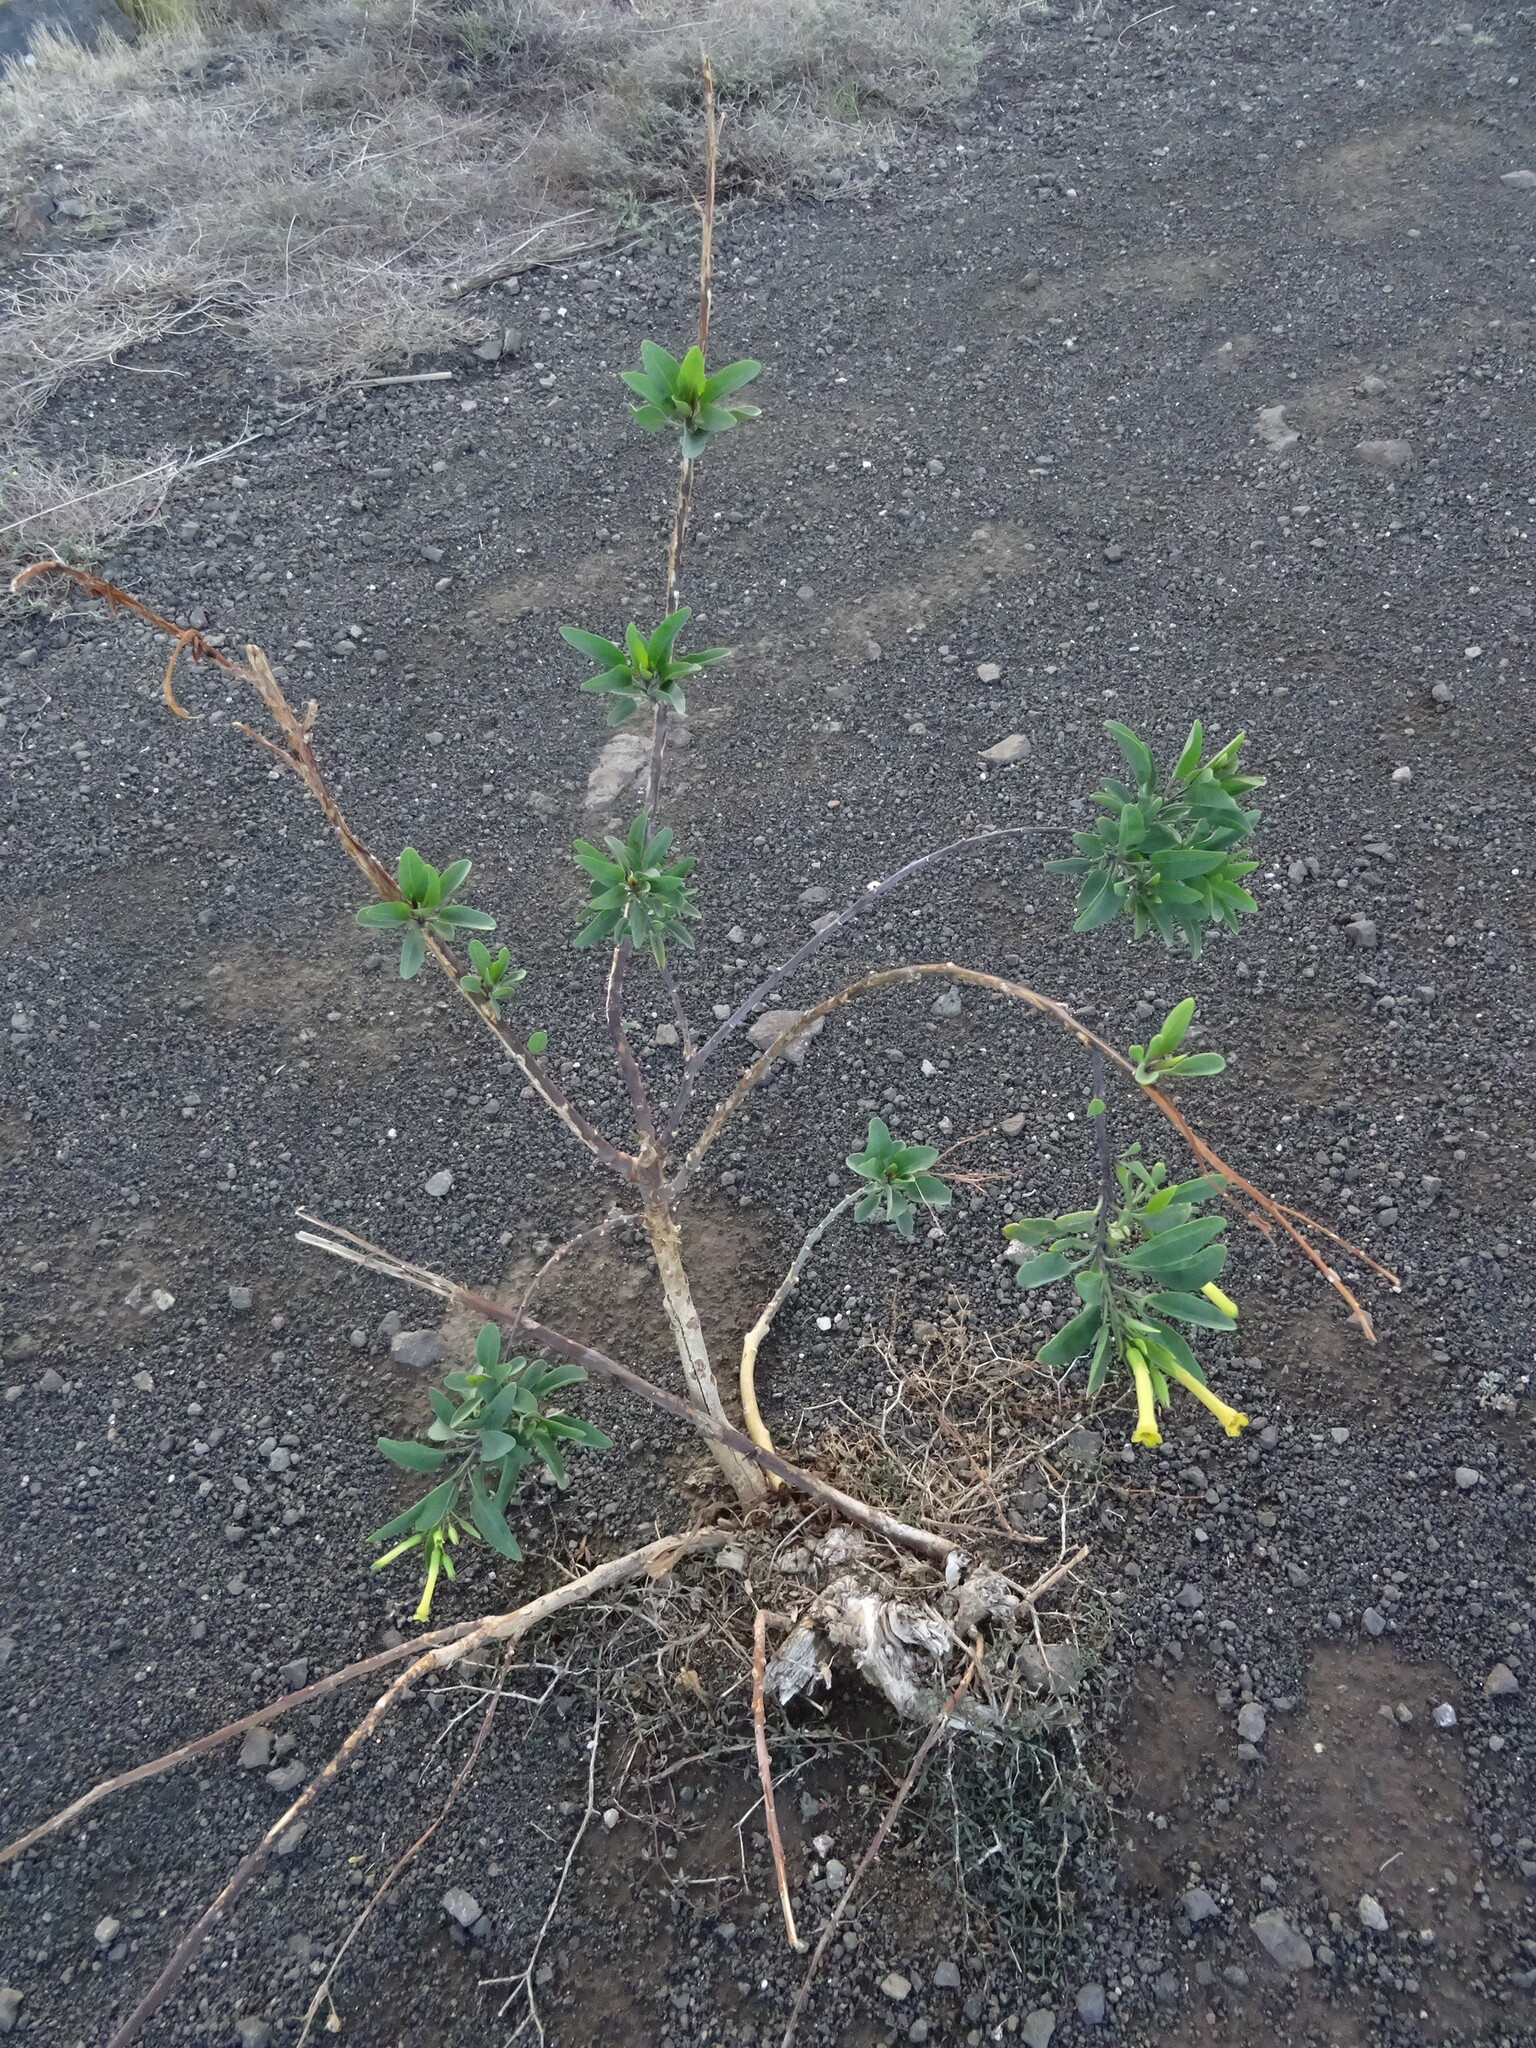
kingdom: Plantae
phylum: Tracheophyta
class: Magnoliopsida
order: Solanales
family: Solanaceae
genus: Nicotiana
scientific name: Nicotiana glauca
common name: Tree tobacco
